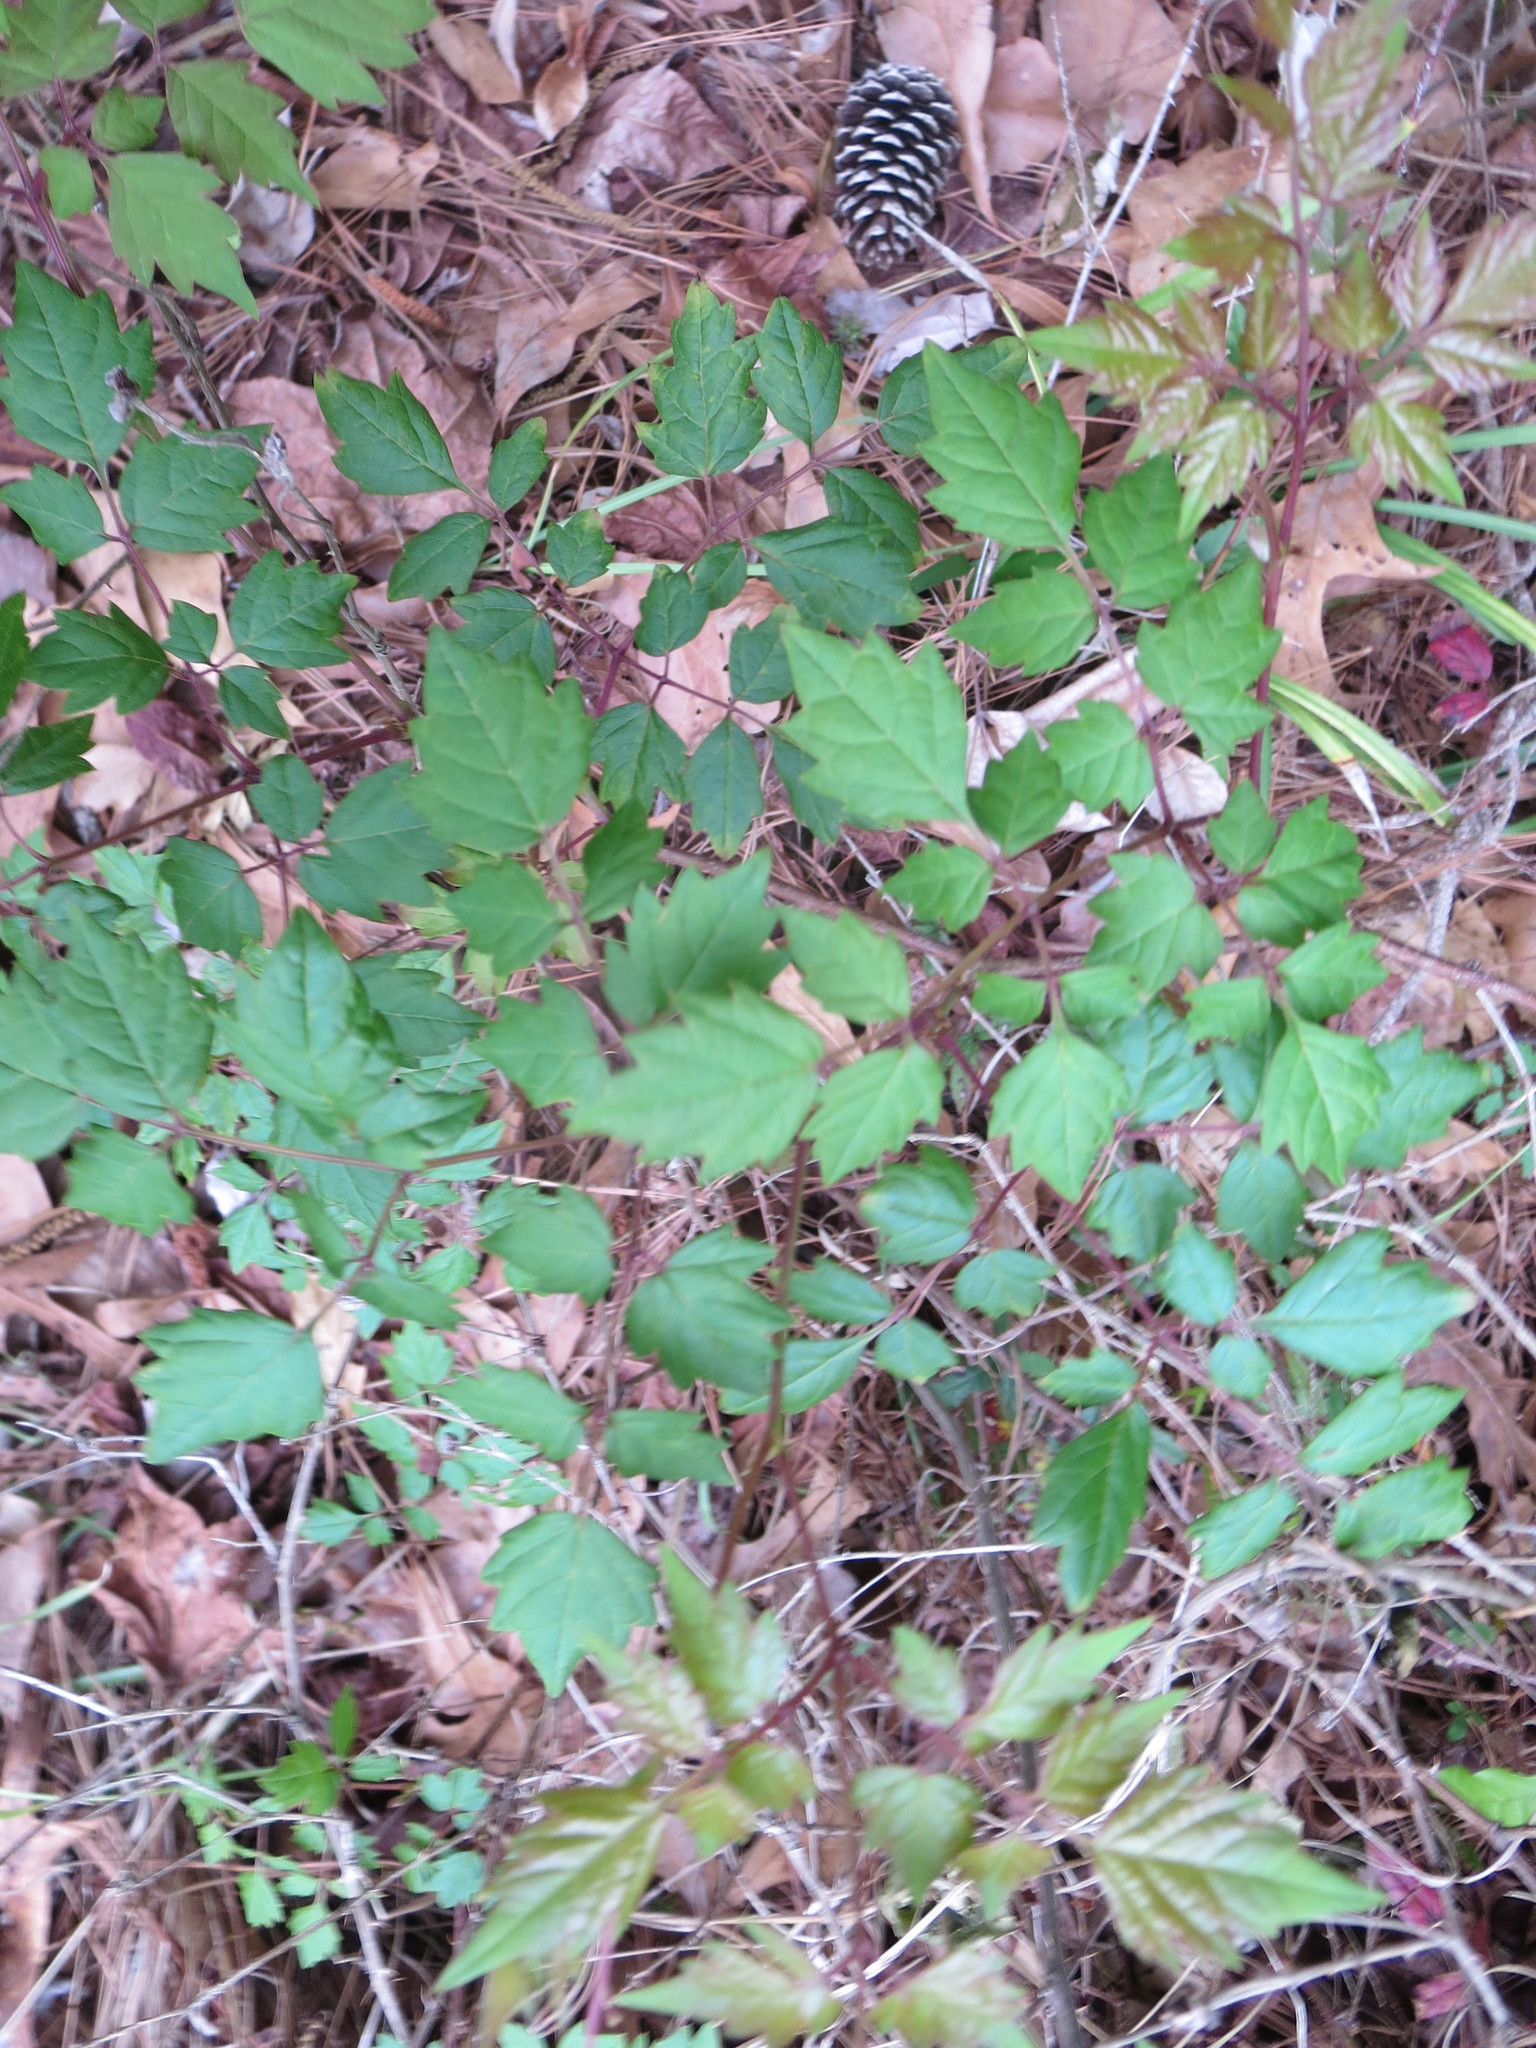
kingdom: Plantae
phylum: Tracheophyta
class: Magnoliopsida
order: Vitales
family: Vitaceae
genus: Nekemias
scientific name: Nekemias arborea
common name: Peppervine
